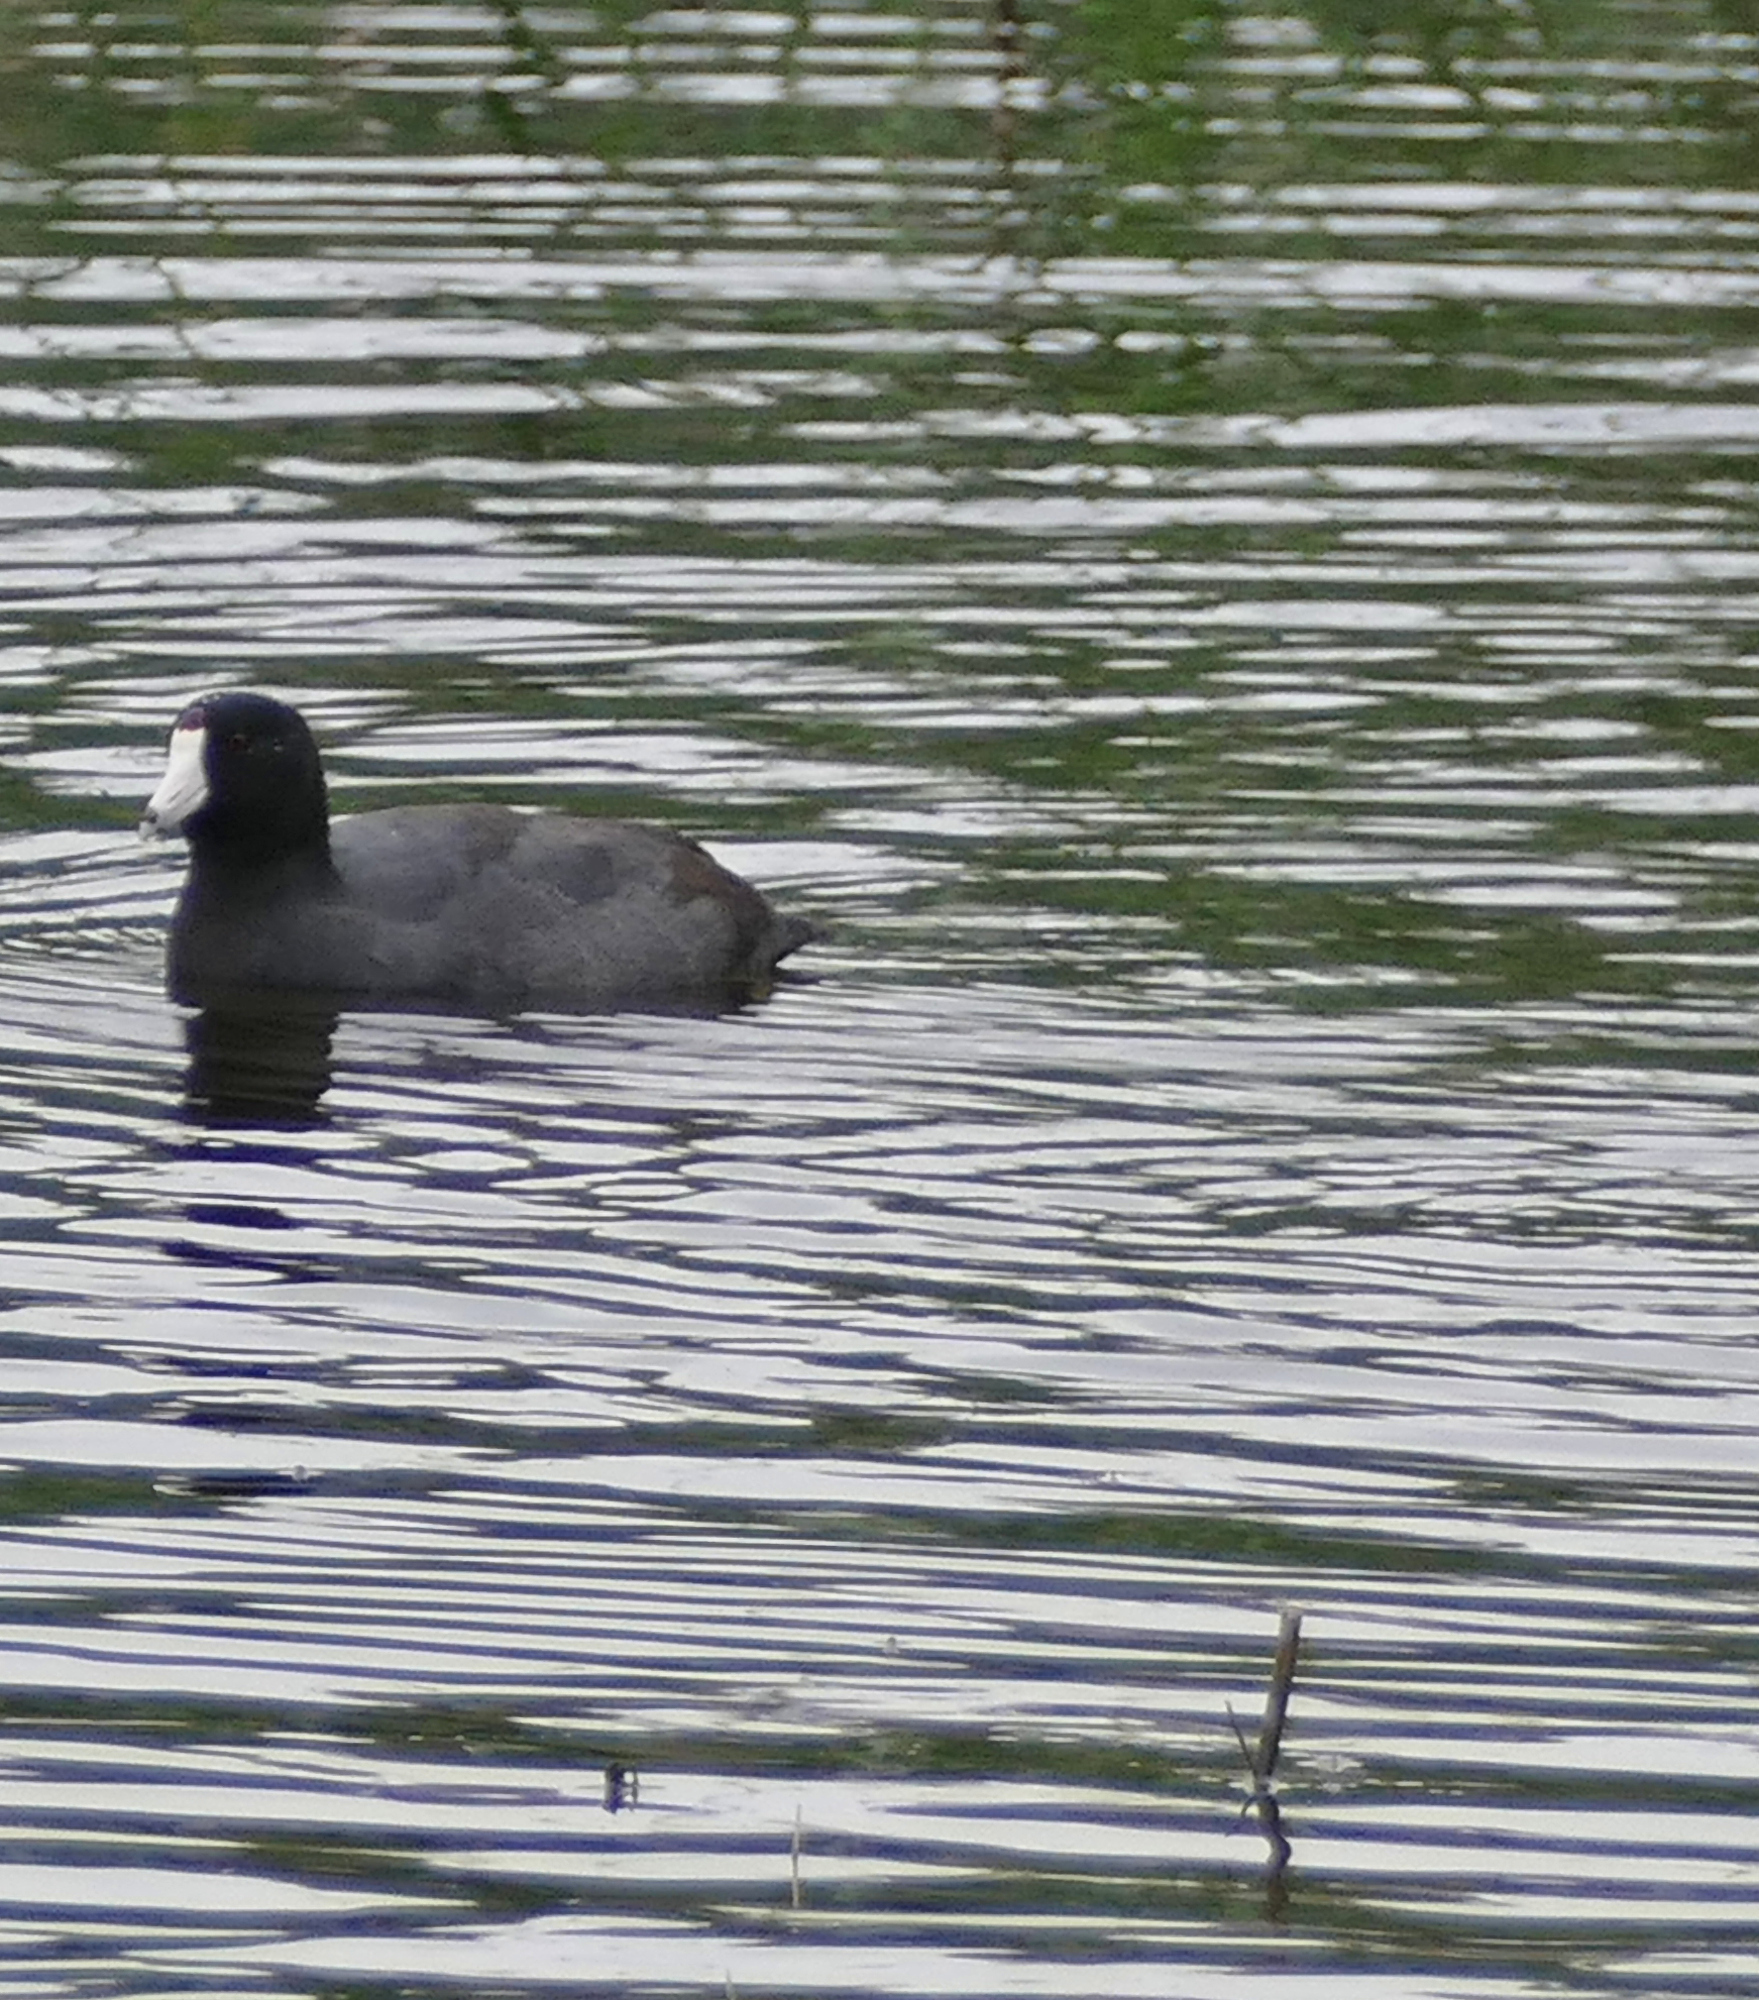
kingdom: Animalia
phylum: Chordata
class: Aves
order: Gruiformes
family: Rallidae
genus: Fulica
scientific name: Fulica americana
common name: American coot
